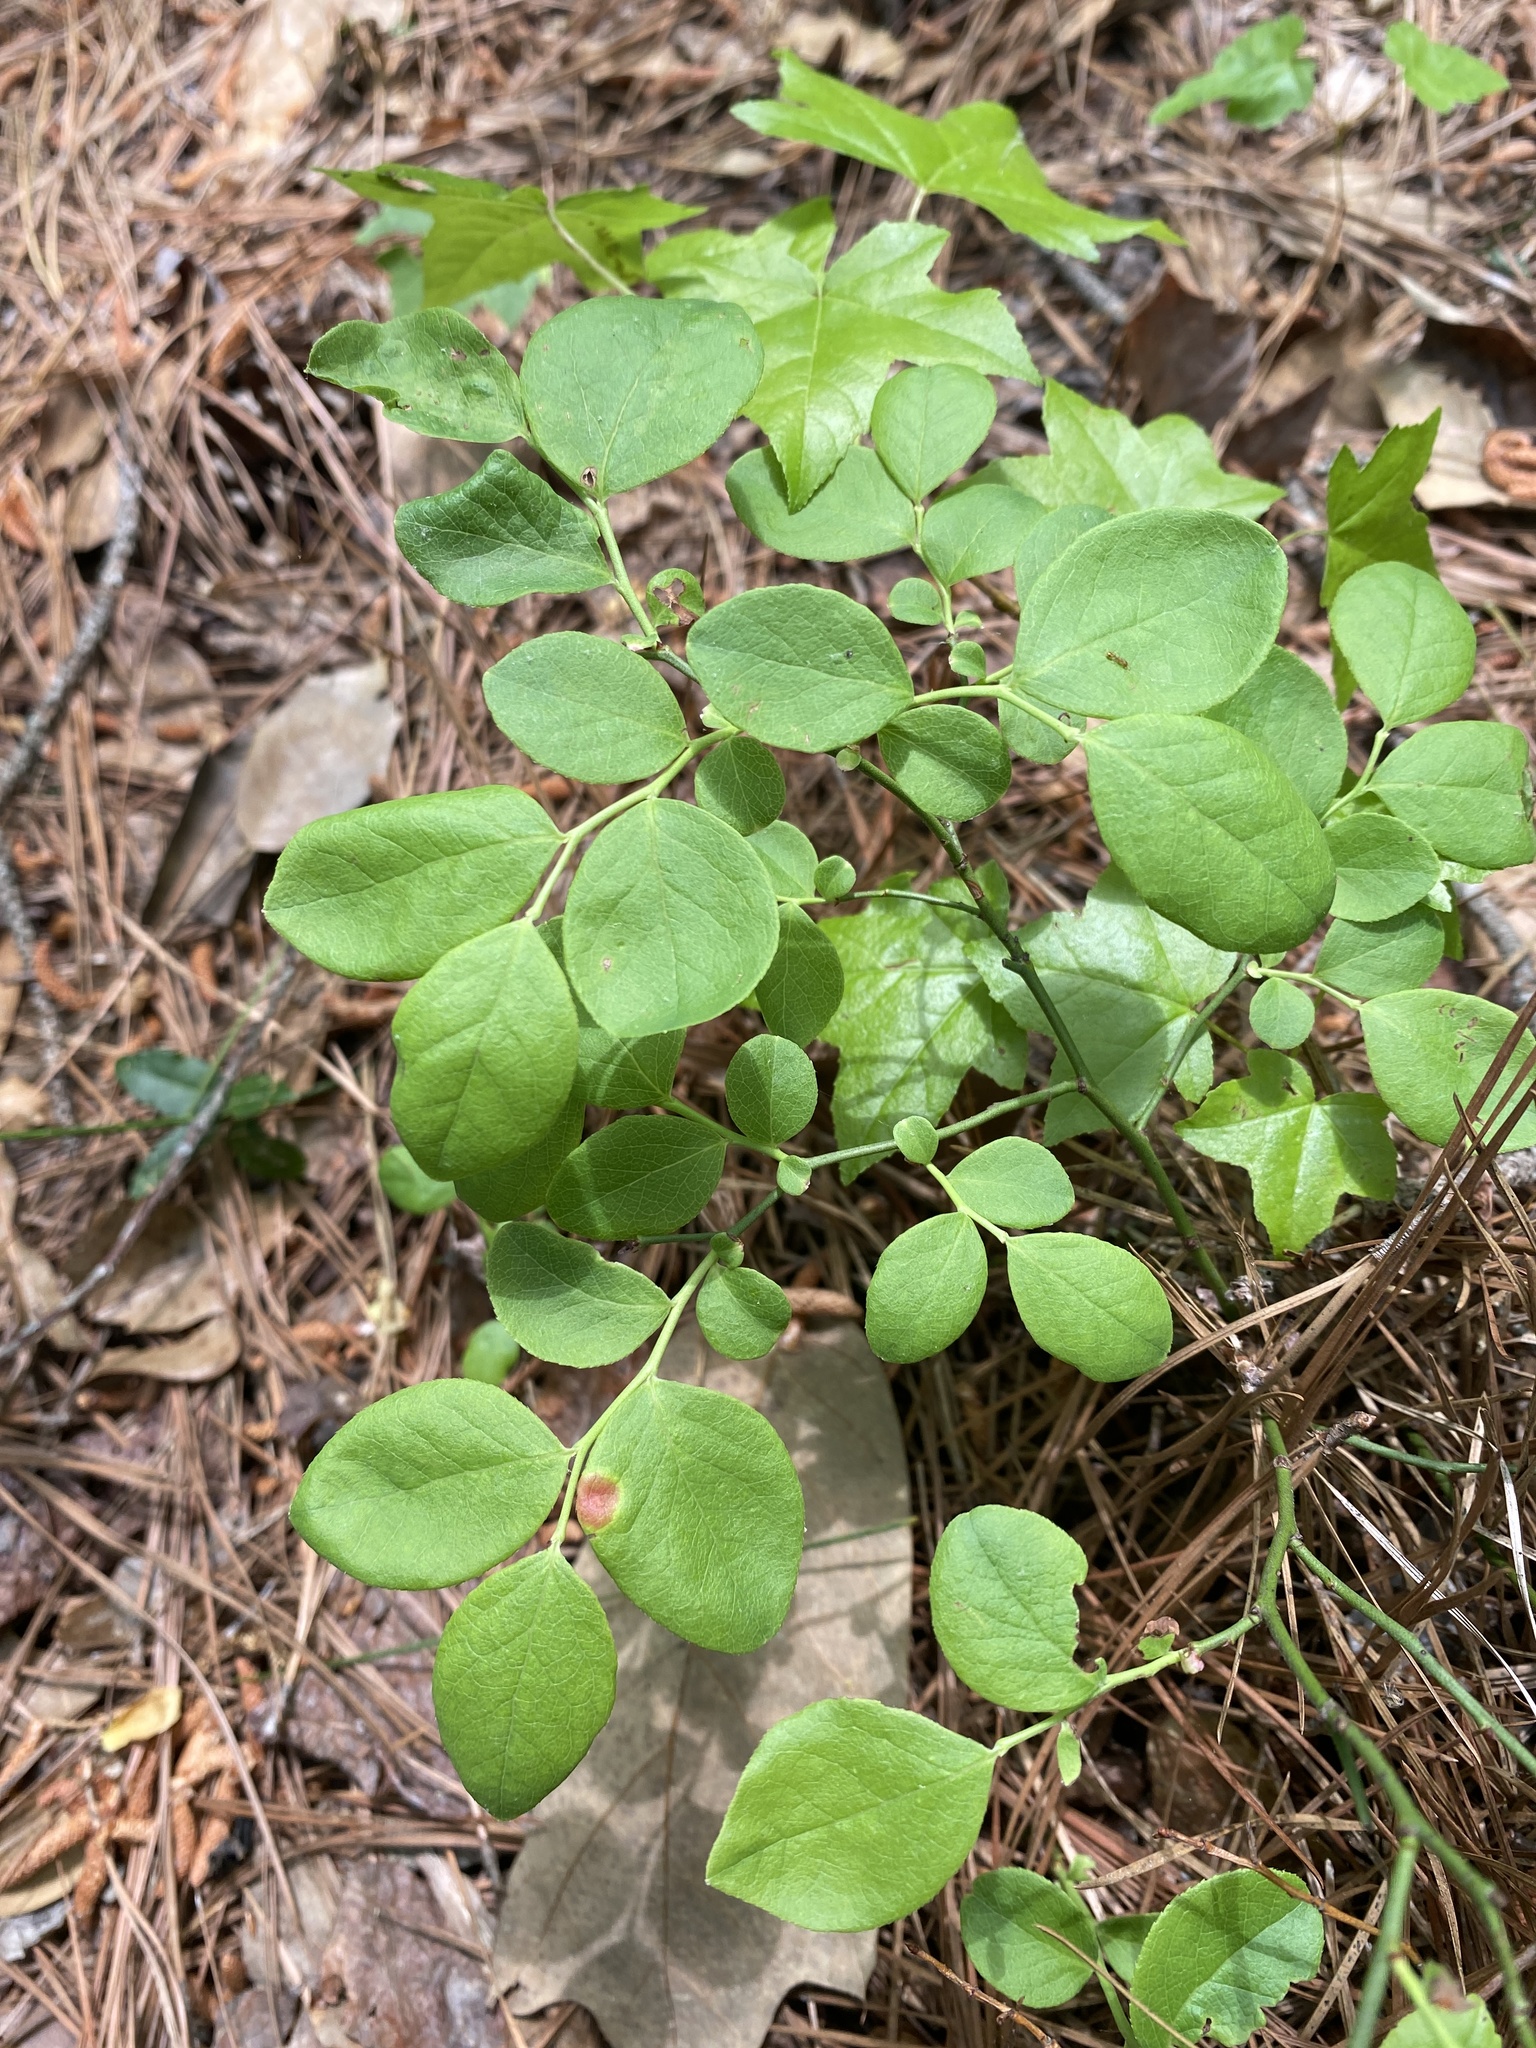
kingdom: Plantae
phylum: Tracheophyta
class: Magnoliopsida
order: Ericales
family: Ericaceae
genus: Vaccinium
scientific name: Vaccinium pallidum
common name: Blue ridge blueberry
